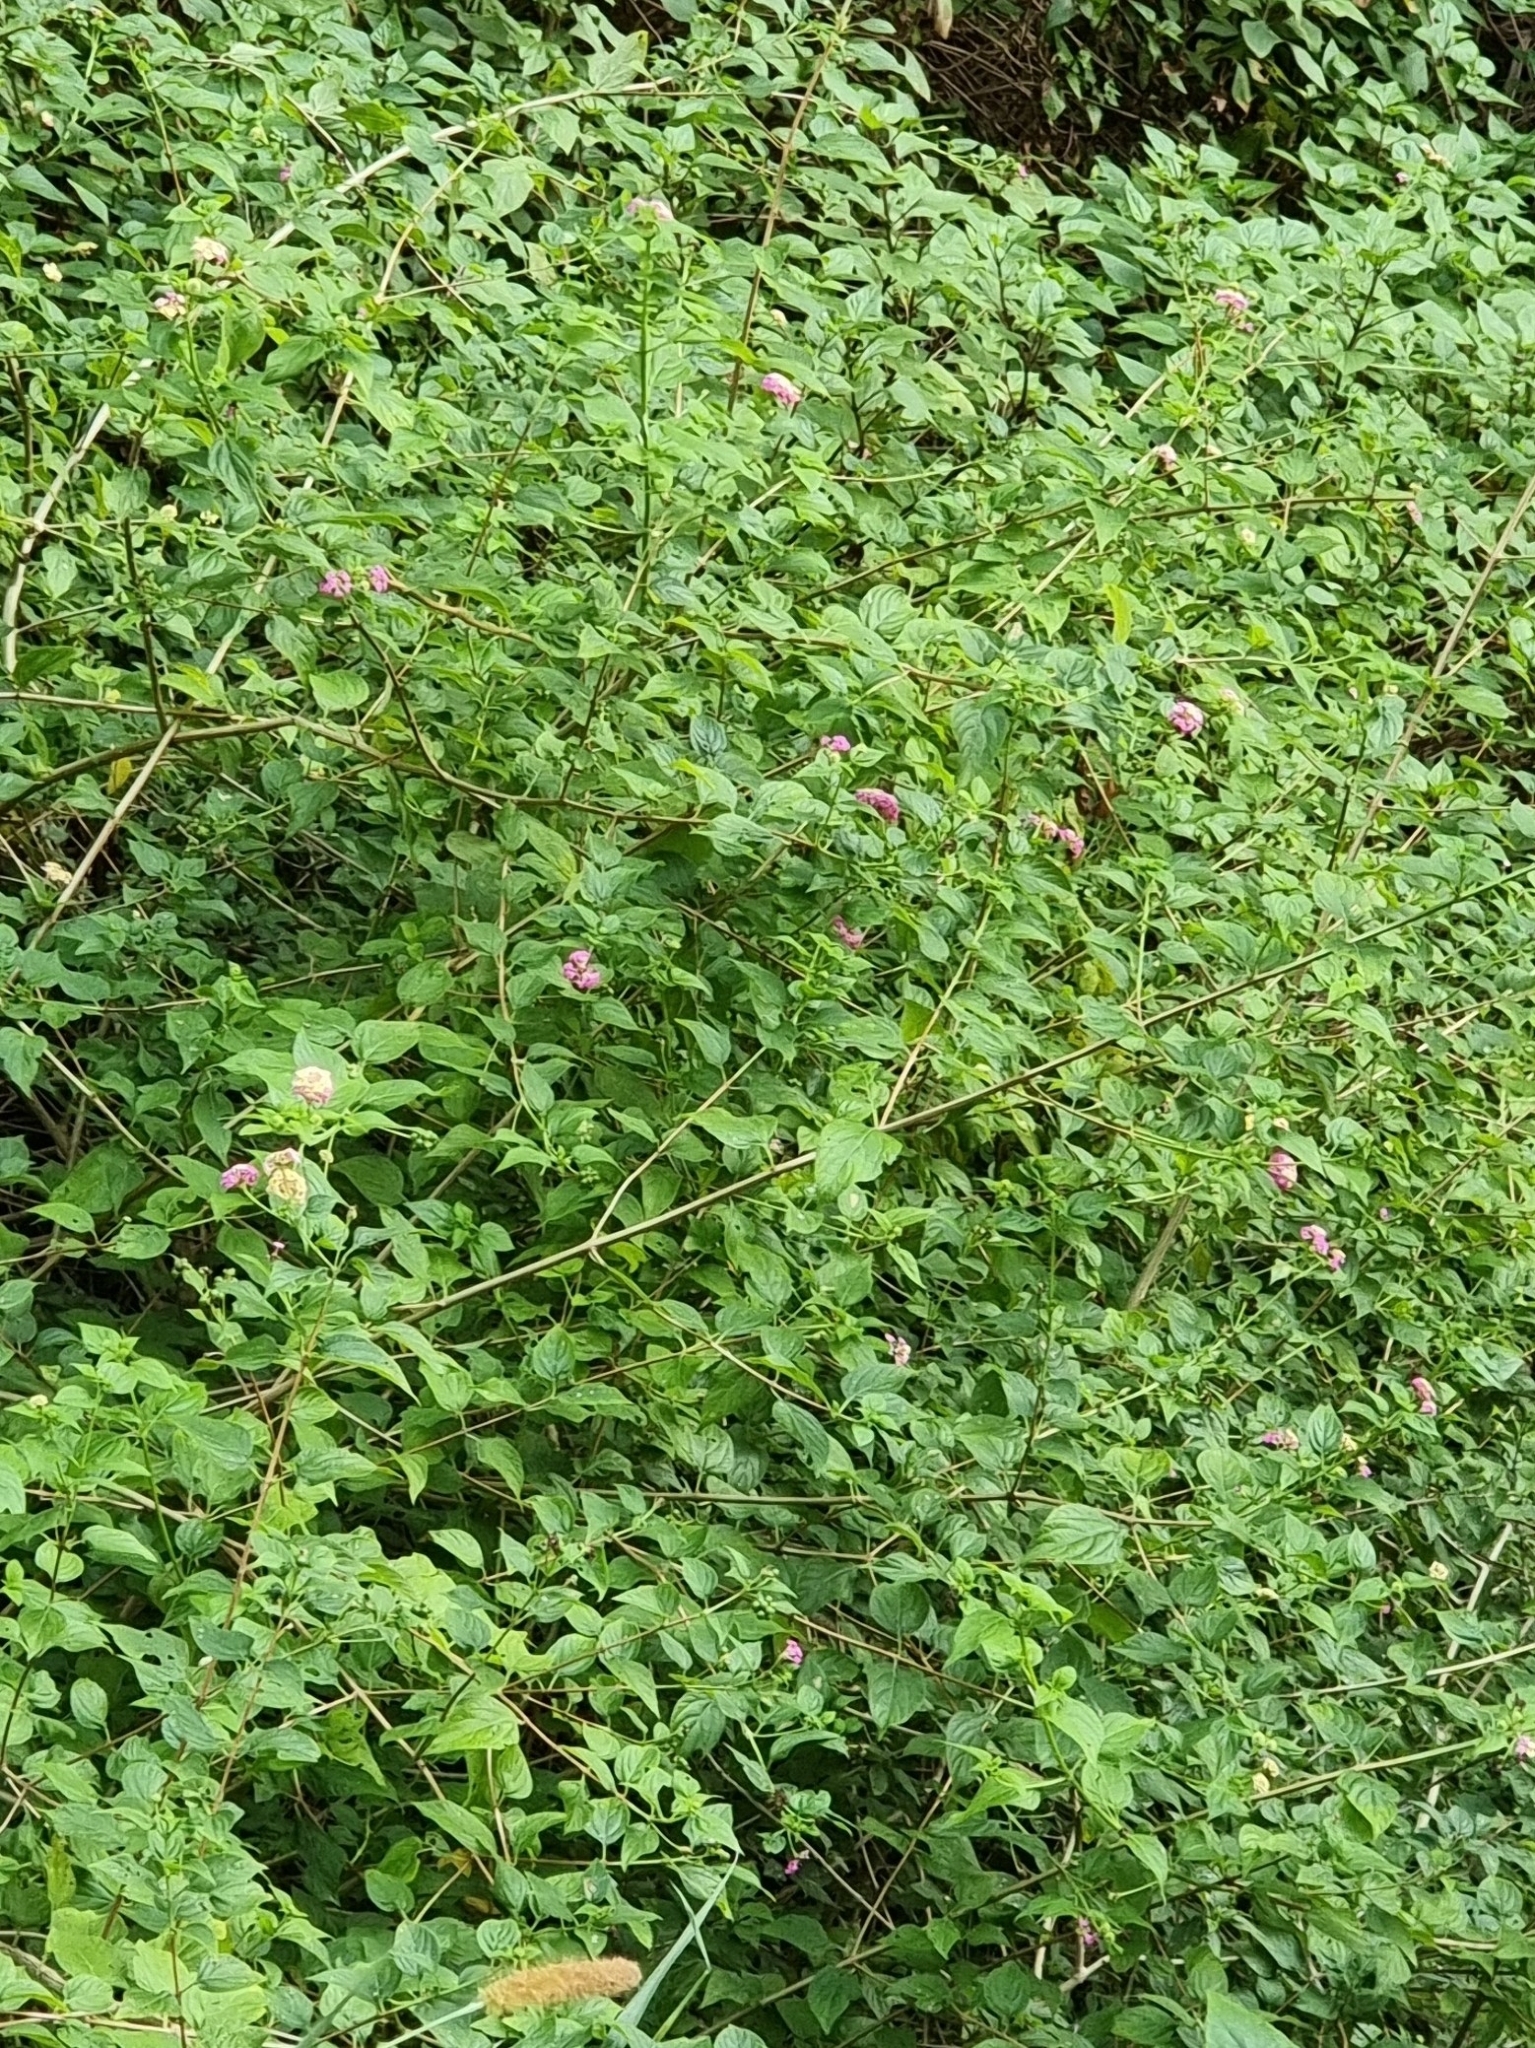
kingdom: Plantae
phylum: Tracheophyta
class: Magnoliopsida
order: Lamiales
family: Verbenaceae
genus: Lantana
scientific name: Lantana camara
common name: Lantana
